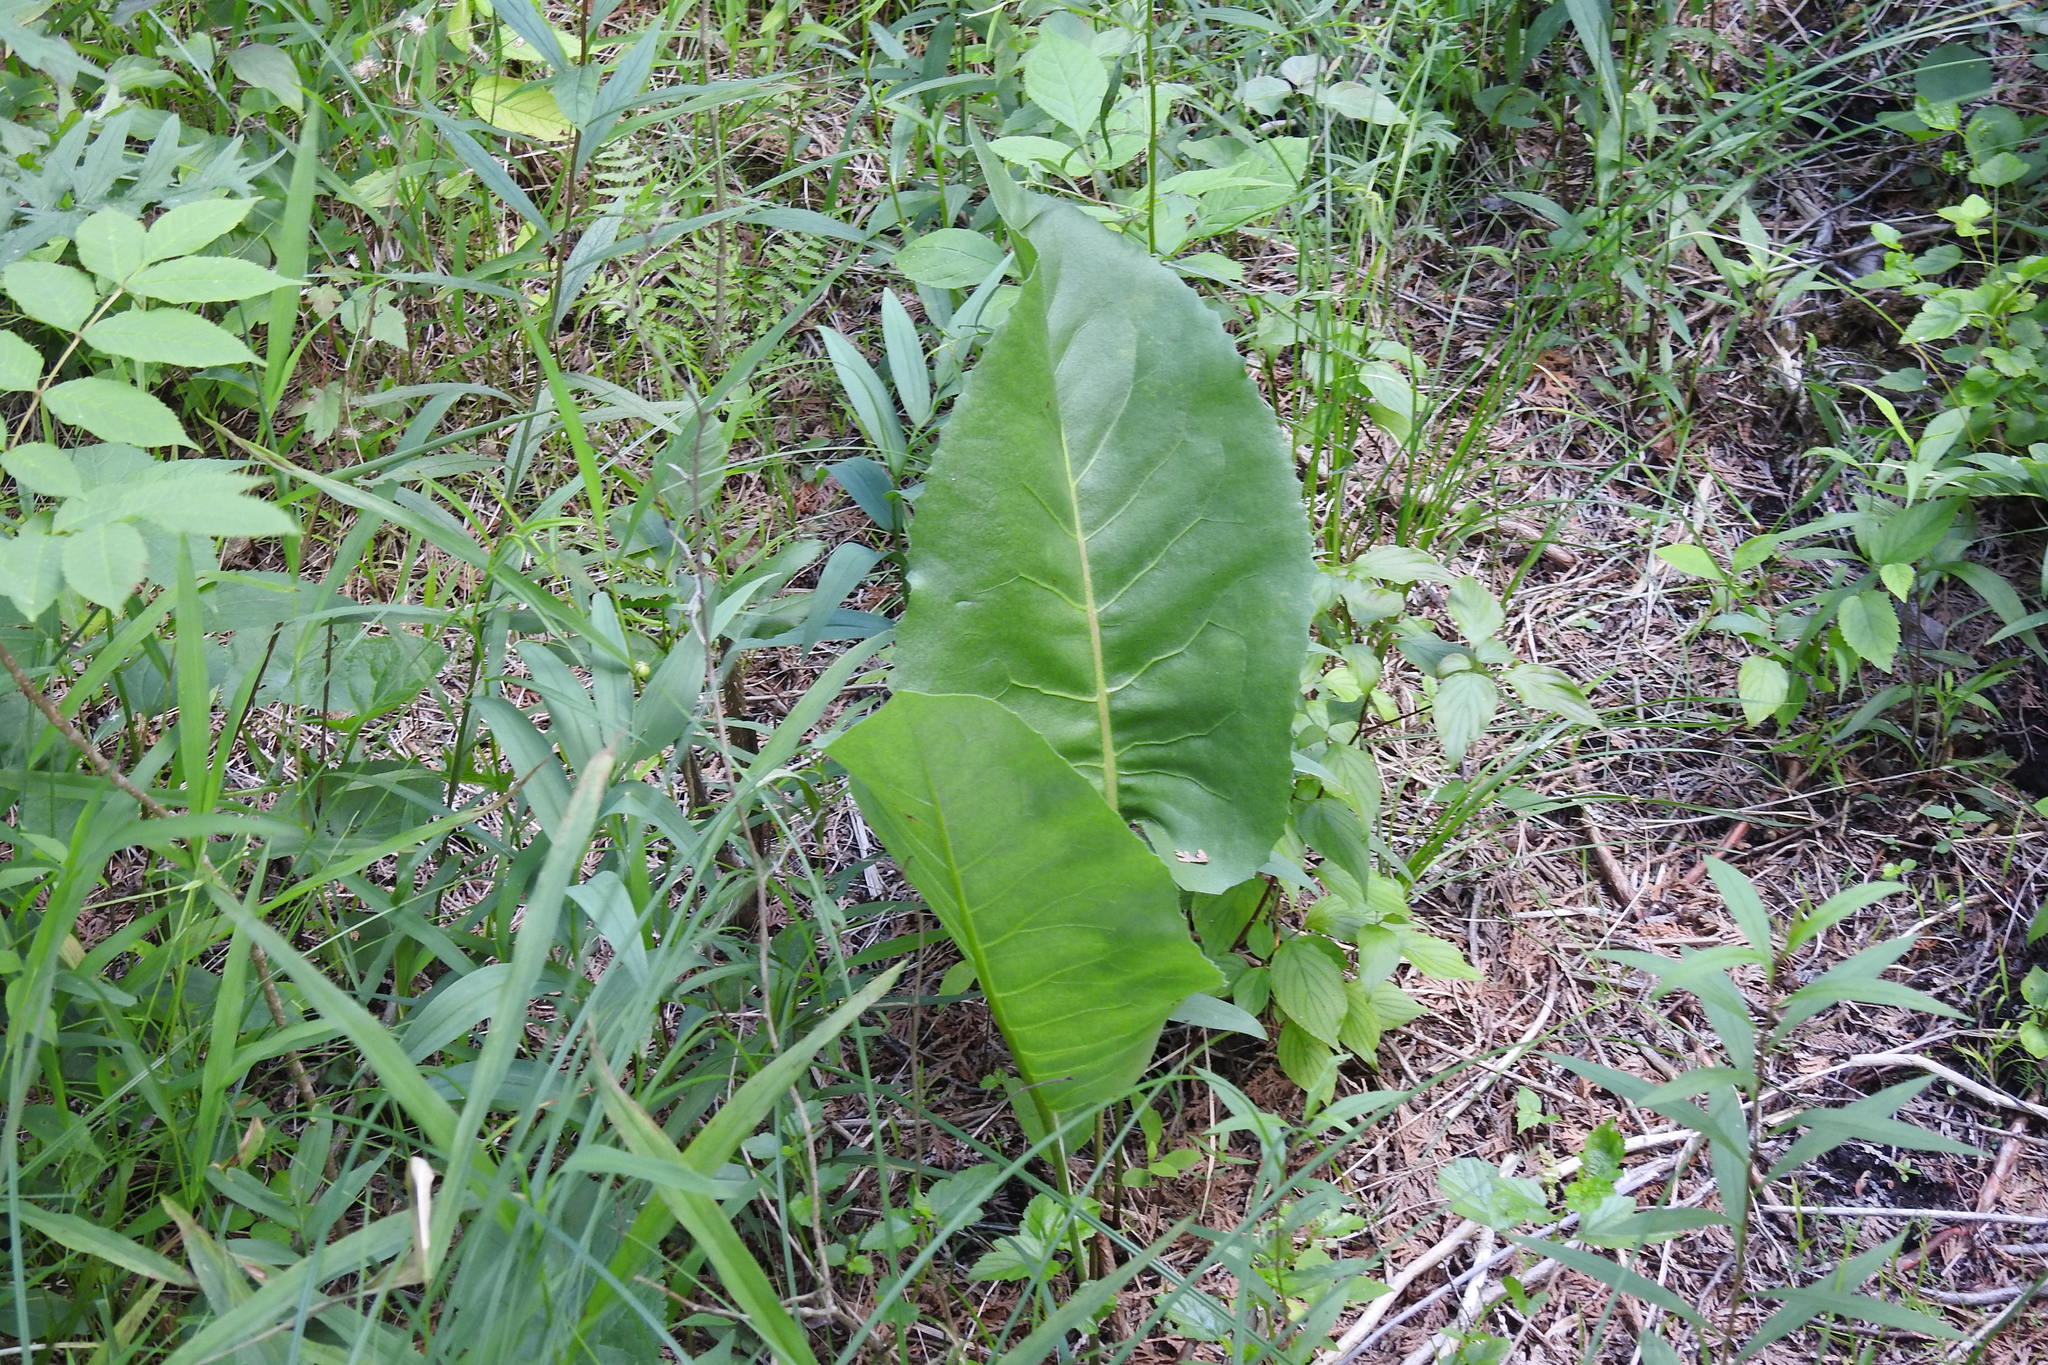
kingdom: Plantae
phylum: Tracheophyta
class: Magnoliopsida
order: Asterales
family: Asteraceae
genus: Silphium
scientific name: Silphium terebinthinaceum
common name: Basal-leaf rosinweed
